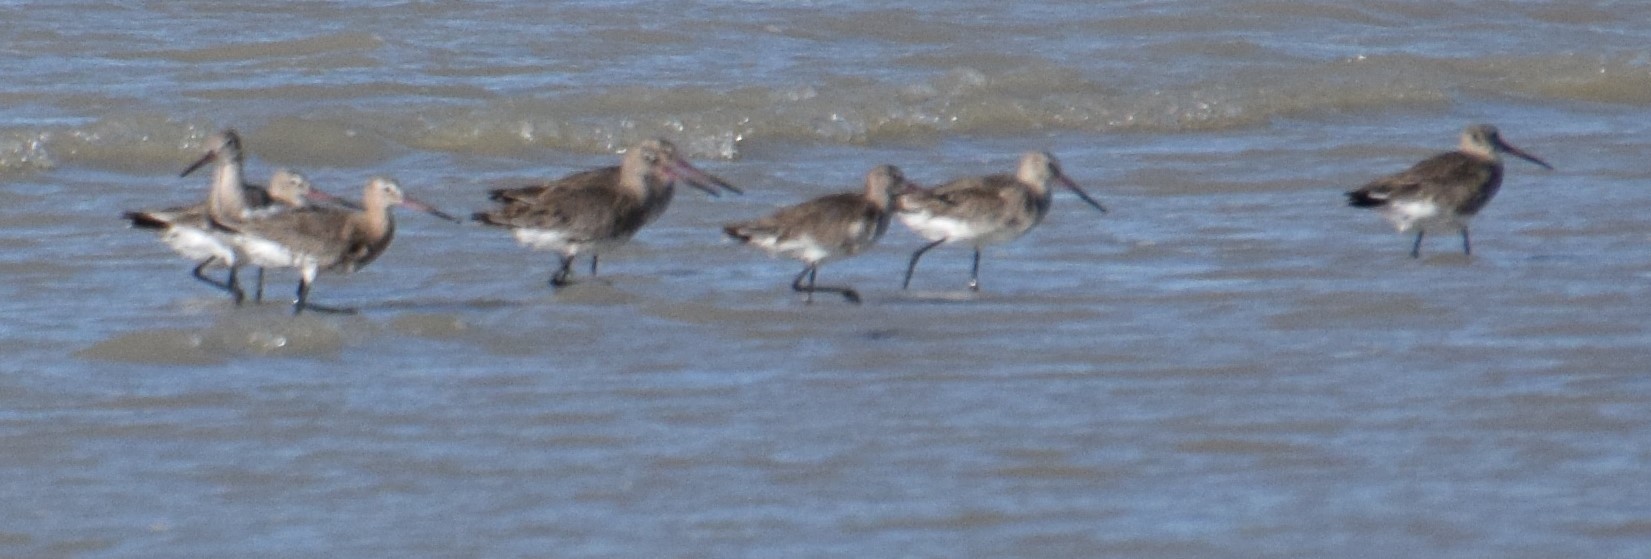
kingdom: Animalia
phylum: Chordata
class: Aves
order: Charadriiformes
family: Scolopacidae
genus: Limosa
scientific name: Limosa limosa
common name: Black-tailed godwit
